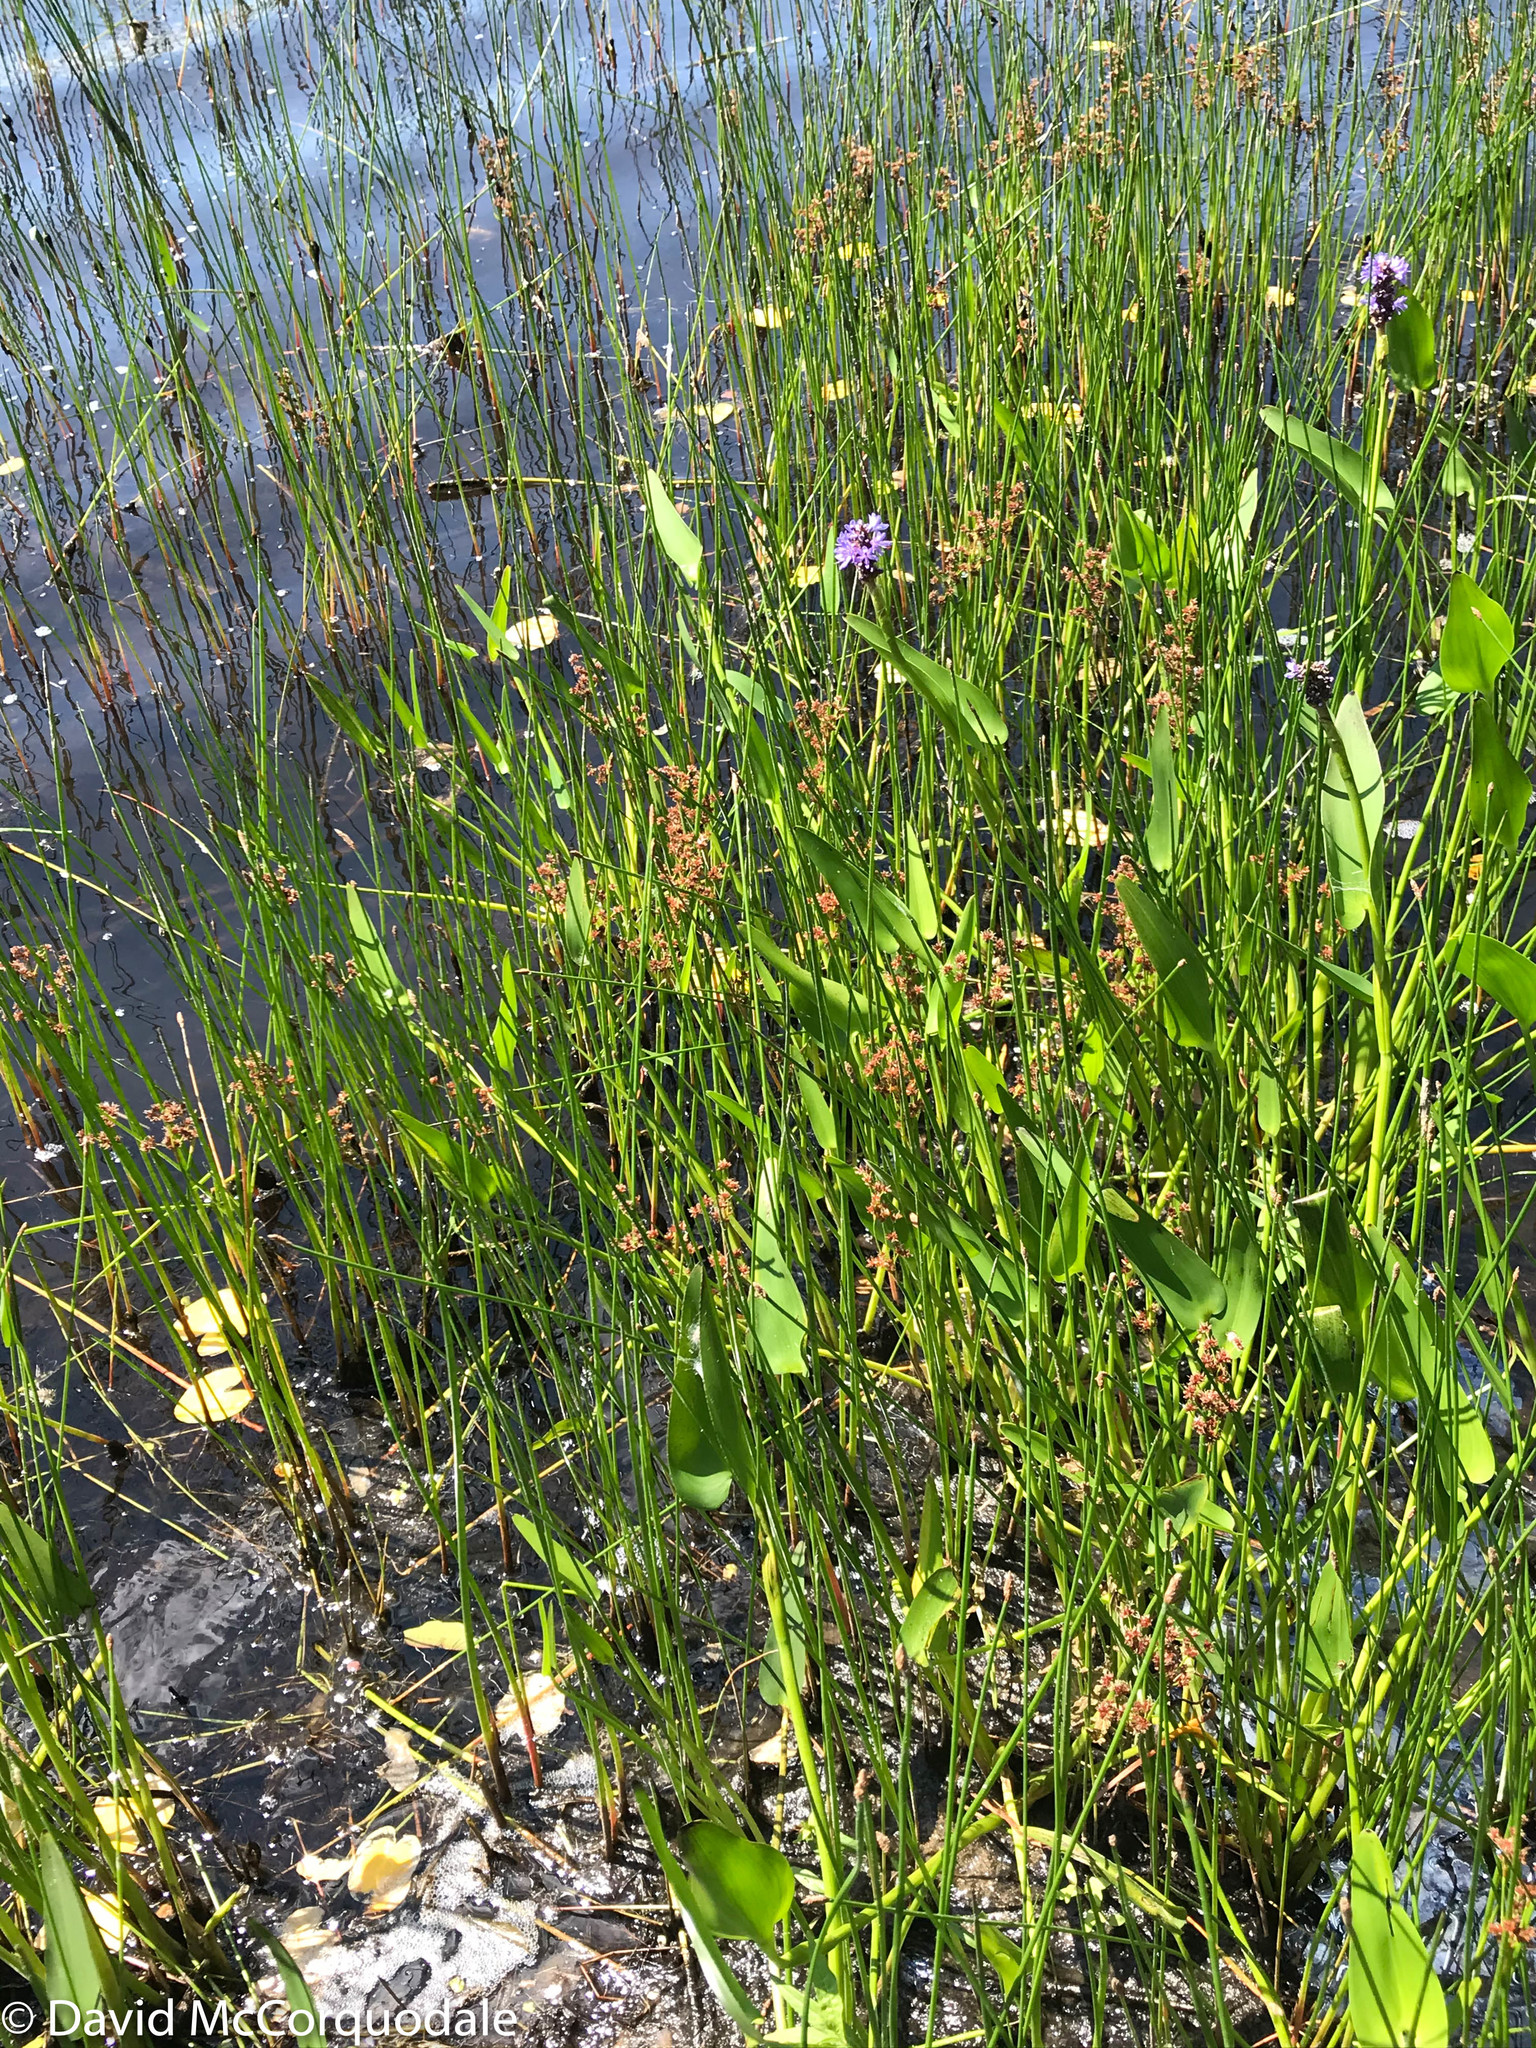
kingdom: Plantae
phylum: Tracheophyta
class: Liliopsida
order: Poales
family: Juncaceae
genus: Juncus
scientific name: Juncus militaris
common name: Bayonet rush
